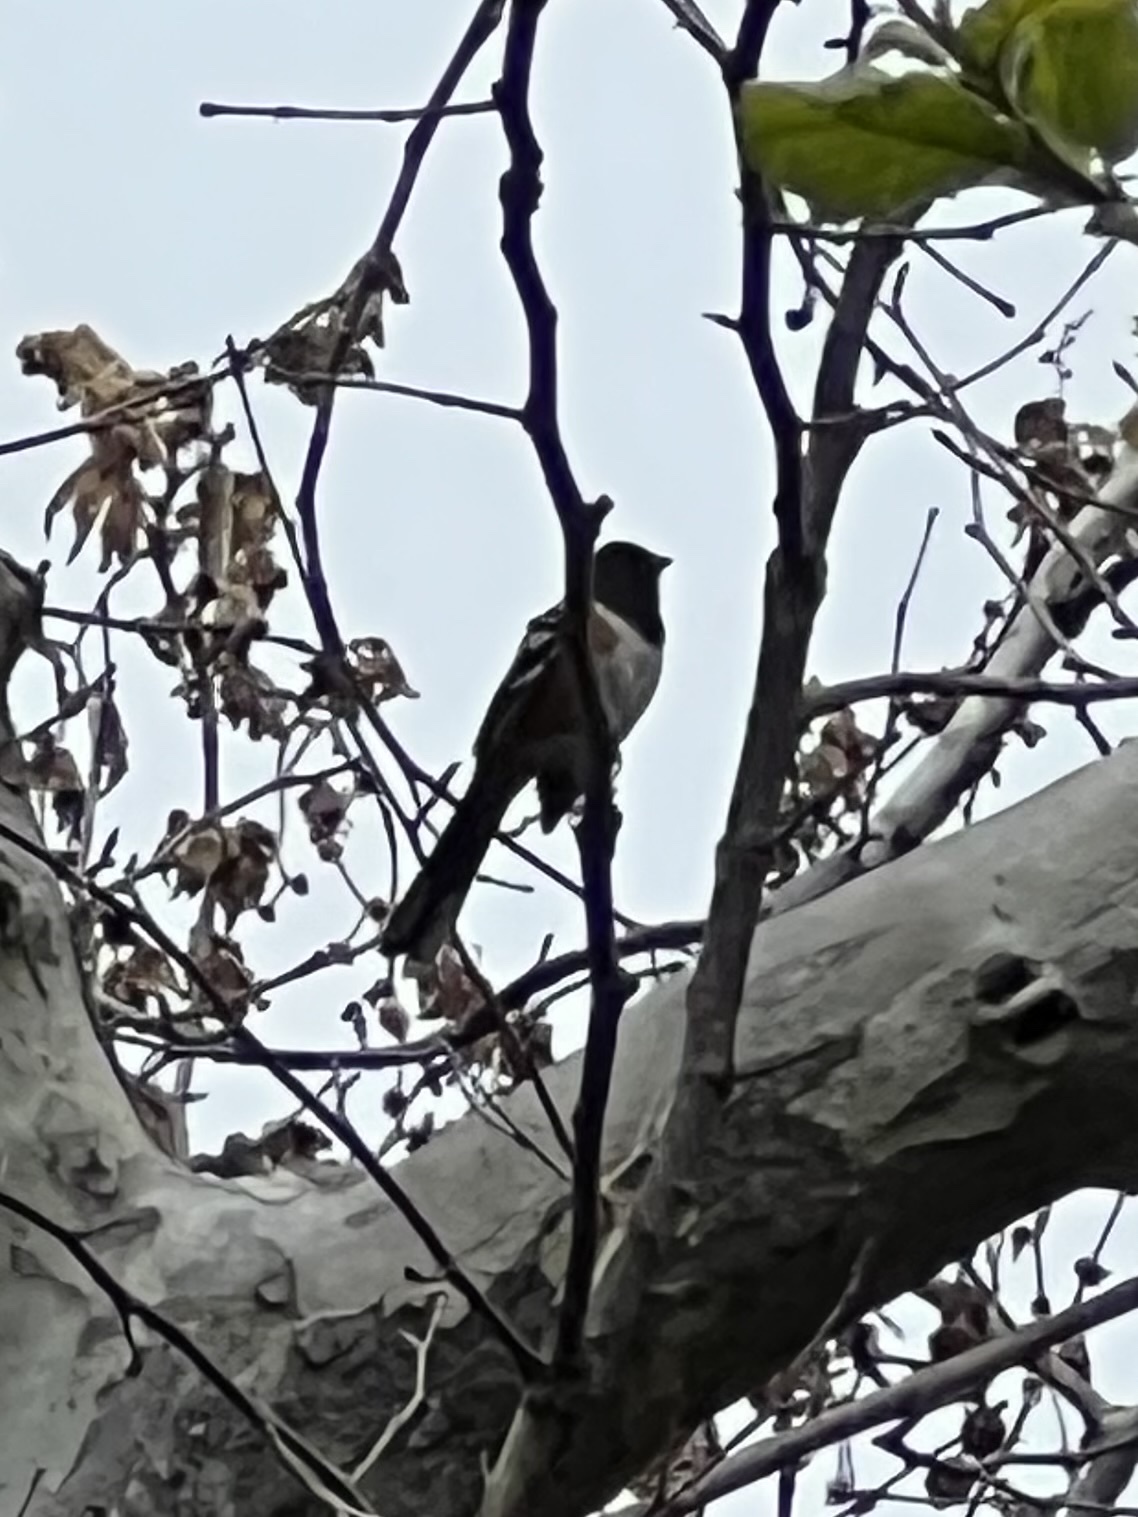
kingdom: Animalia
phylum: Chordata
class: Aves
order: Passeriformes
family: Passerellidae
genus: Pipilo
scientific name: Pipilo maculatus
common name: Spotted towhee
